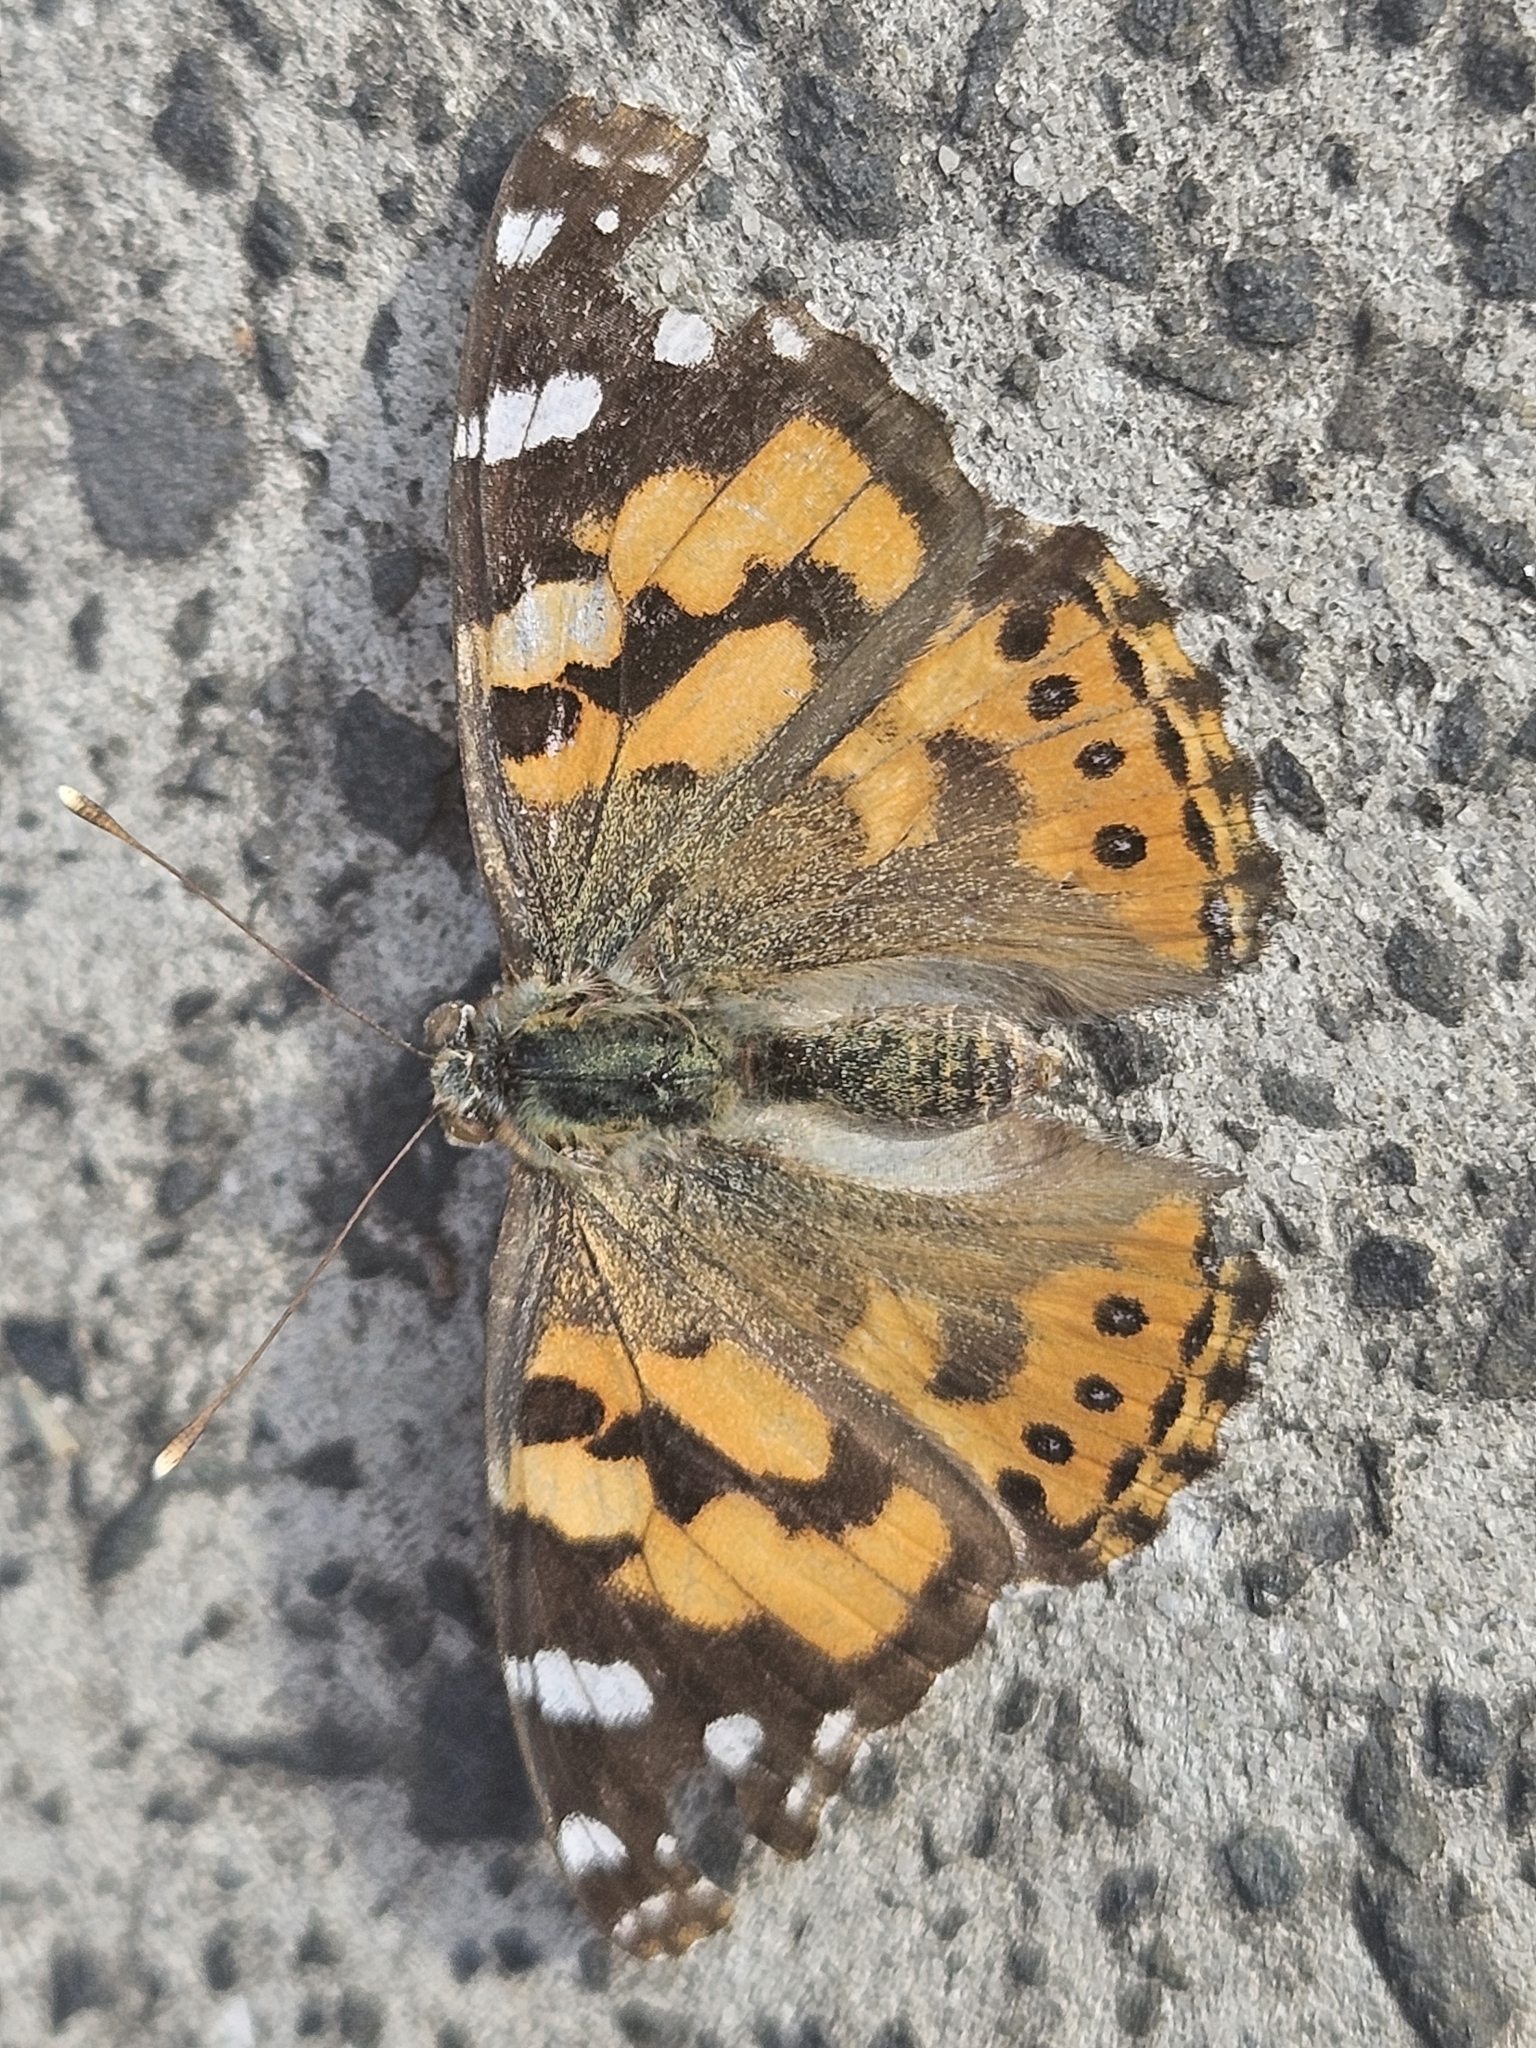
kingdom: Animalia
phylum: Arthropoda
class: Insecta
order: Lepidoptera
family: Nymphalidae
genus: Vanessa
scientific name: Vanessa kershawi
